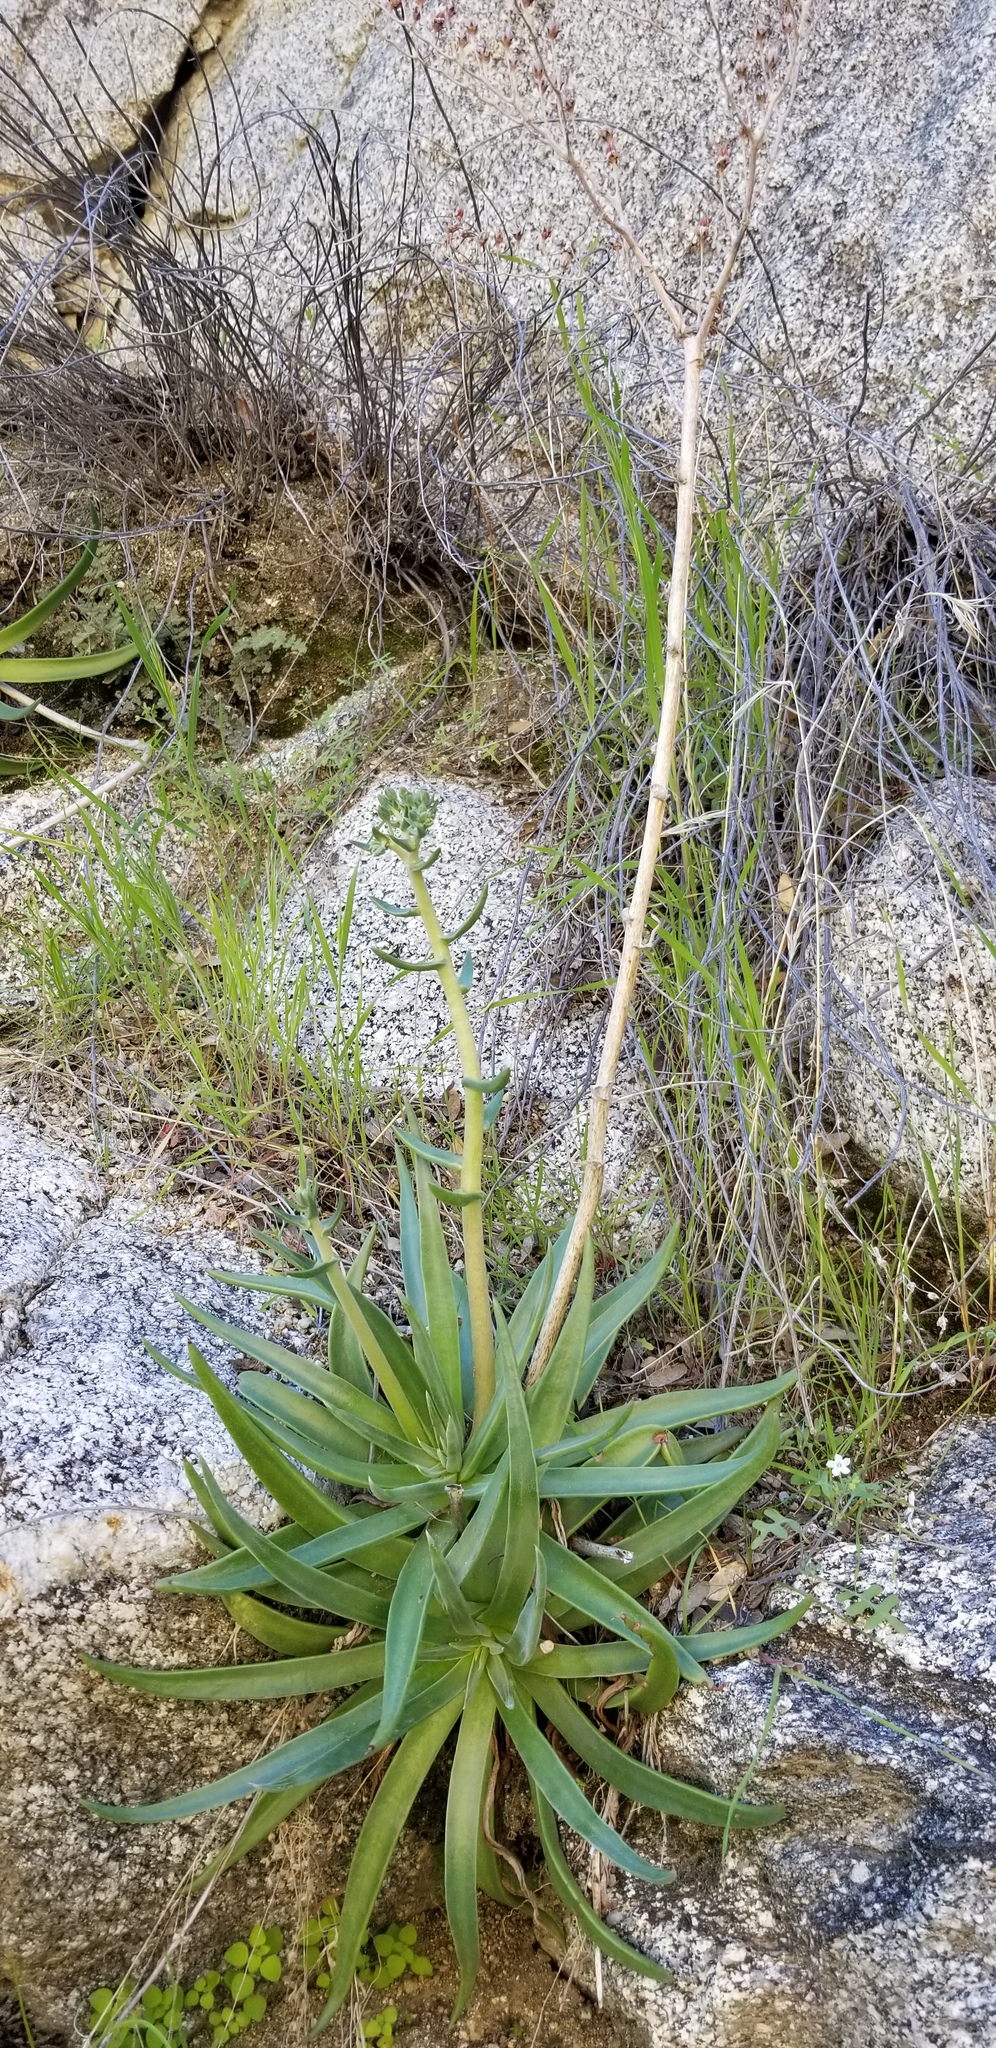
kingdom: Plantae
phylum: Tracheophyta
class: Magnoliopsida
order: Saxifragales
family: Crassulaceae
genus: Dudleya
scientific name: Dudleya saxosa
